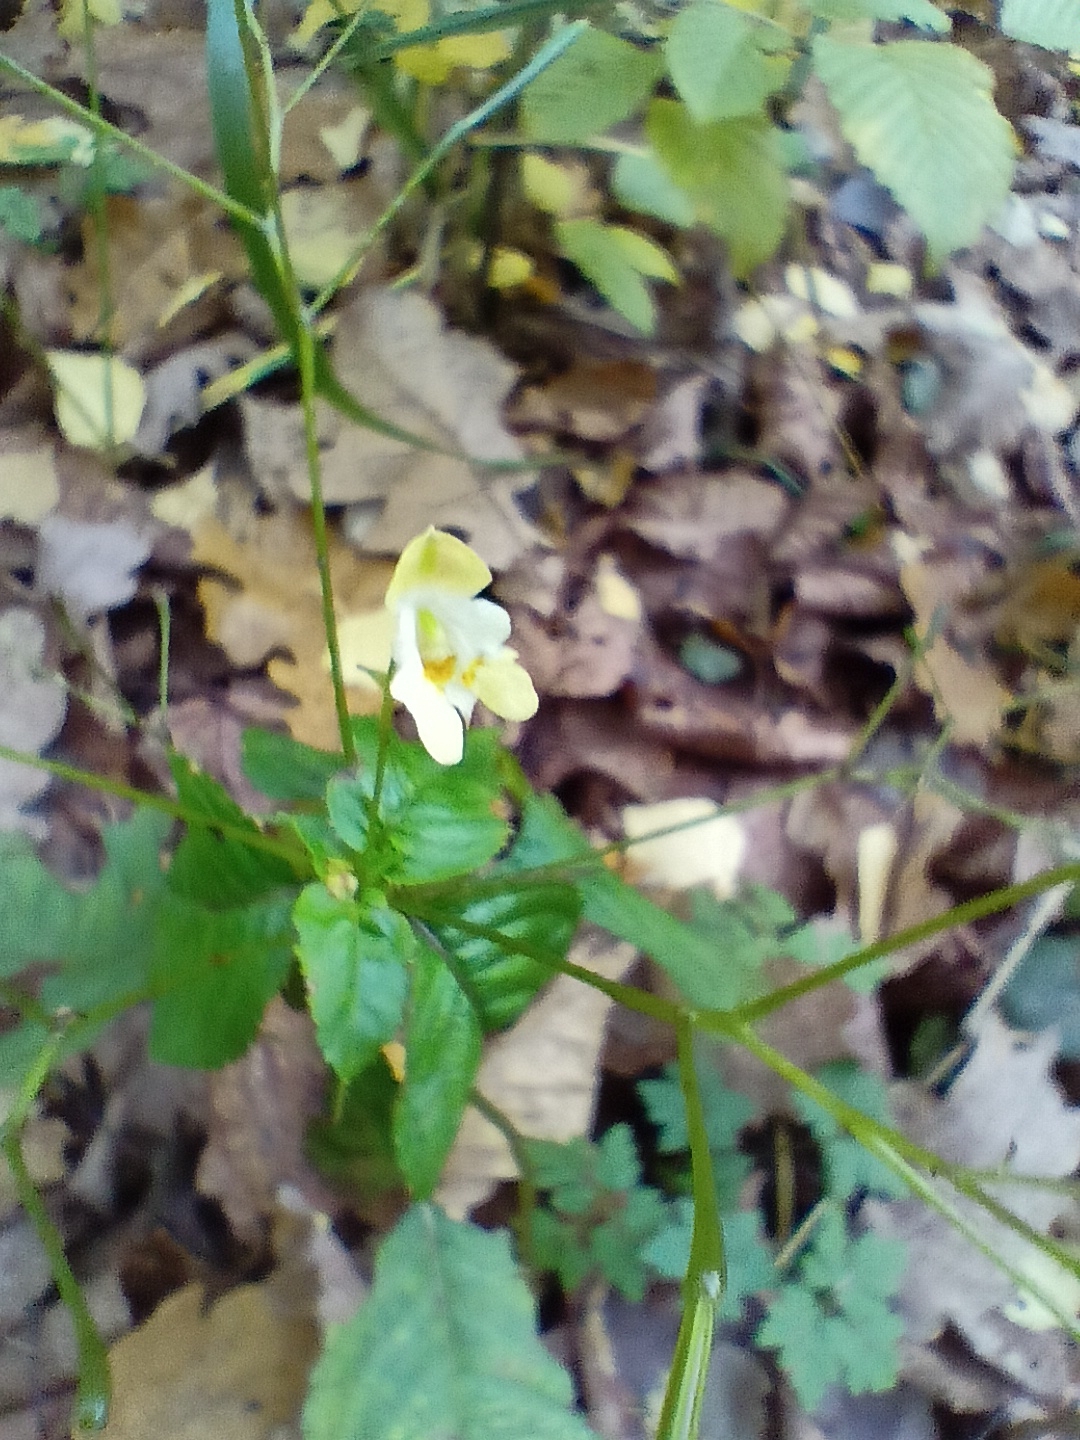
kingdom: Plantae
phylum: Tracheophyta
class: Magnoliopsida
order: Ericales
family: Balsaminaceae
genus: Impatiens
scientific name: Impatiens parviflora
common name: Small balsam
